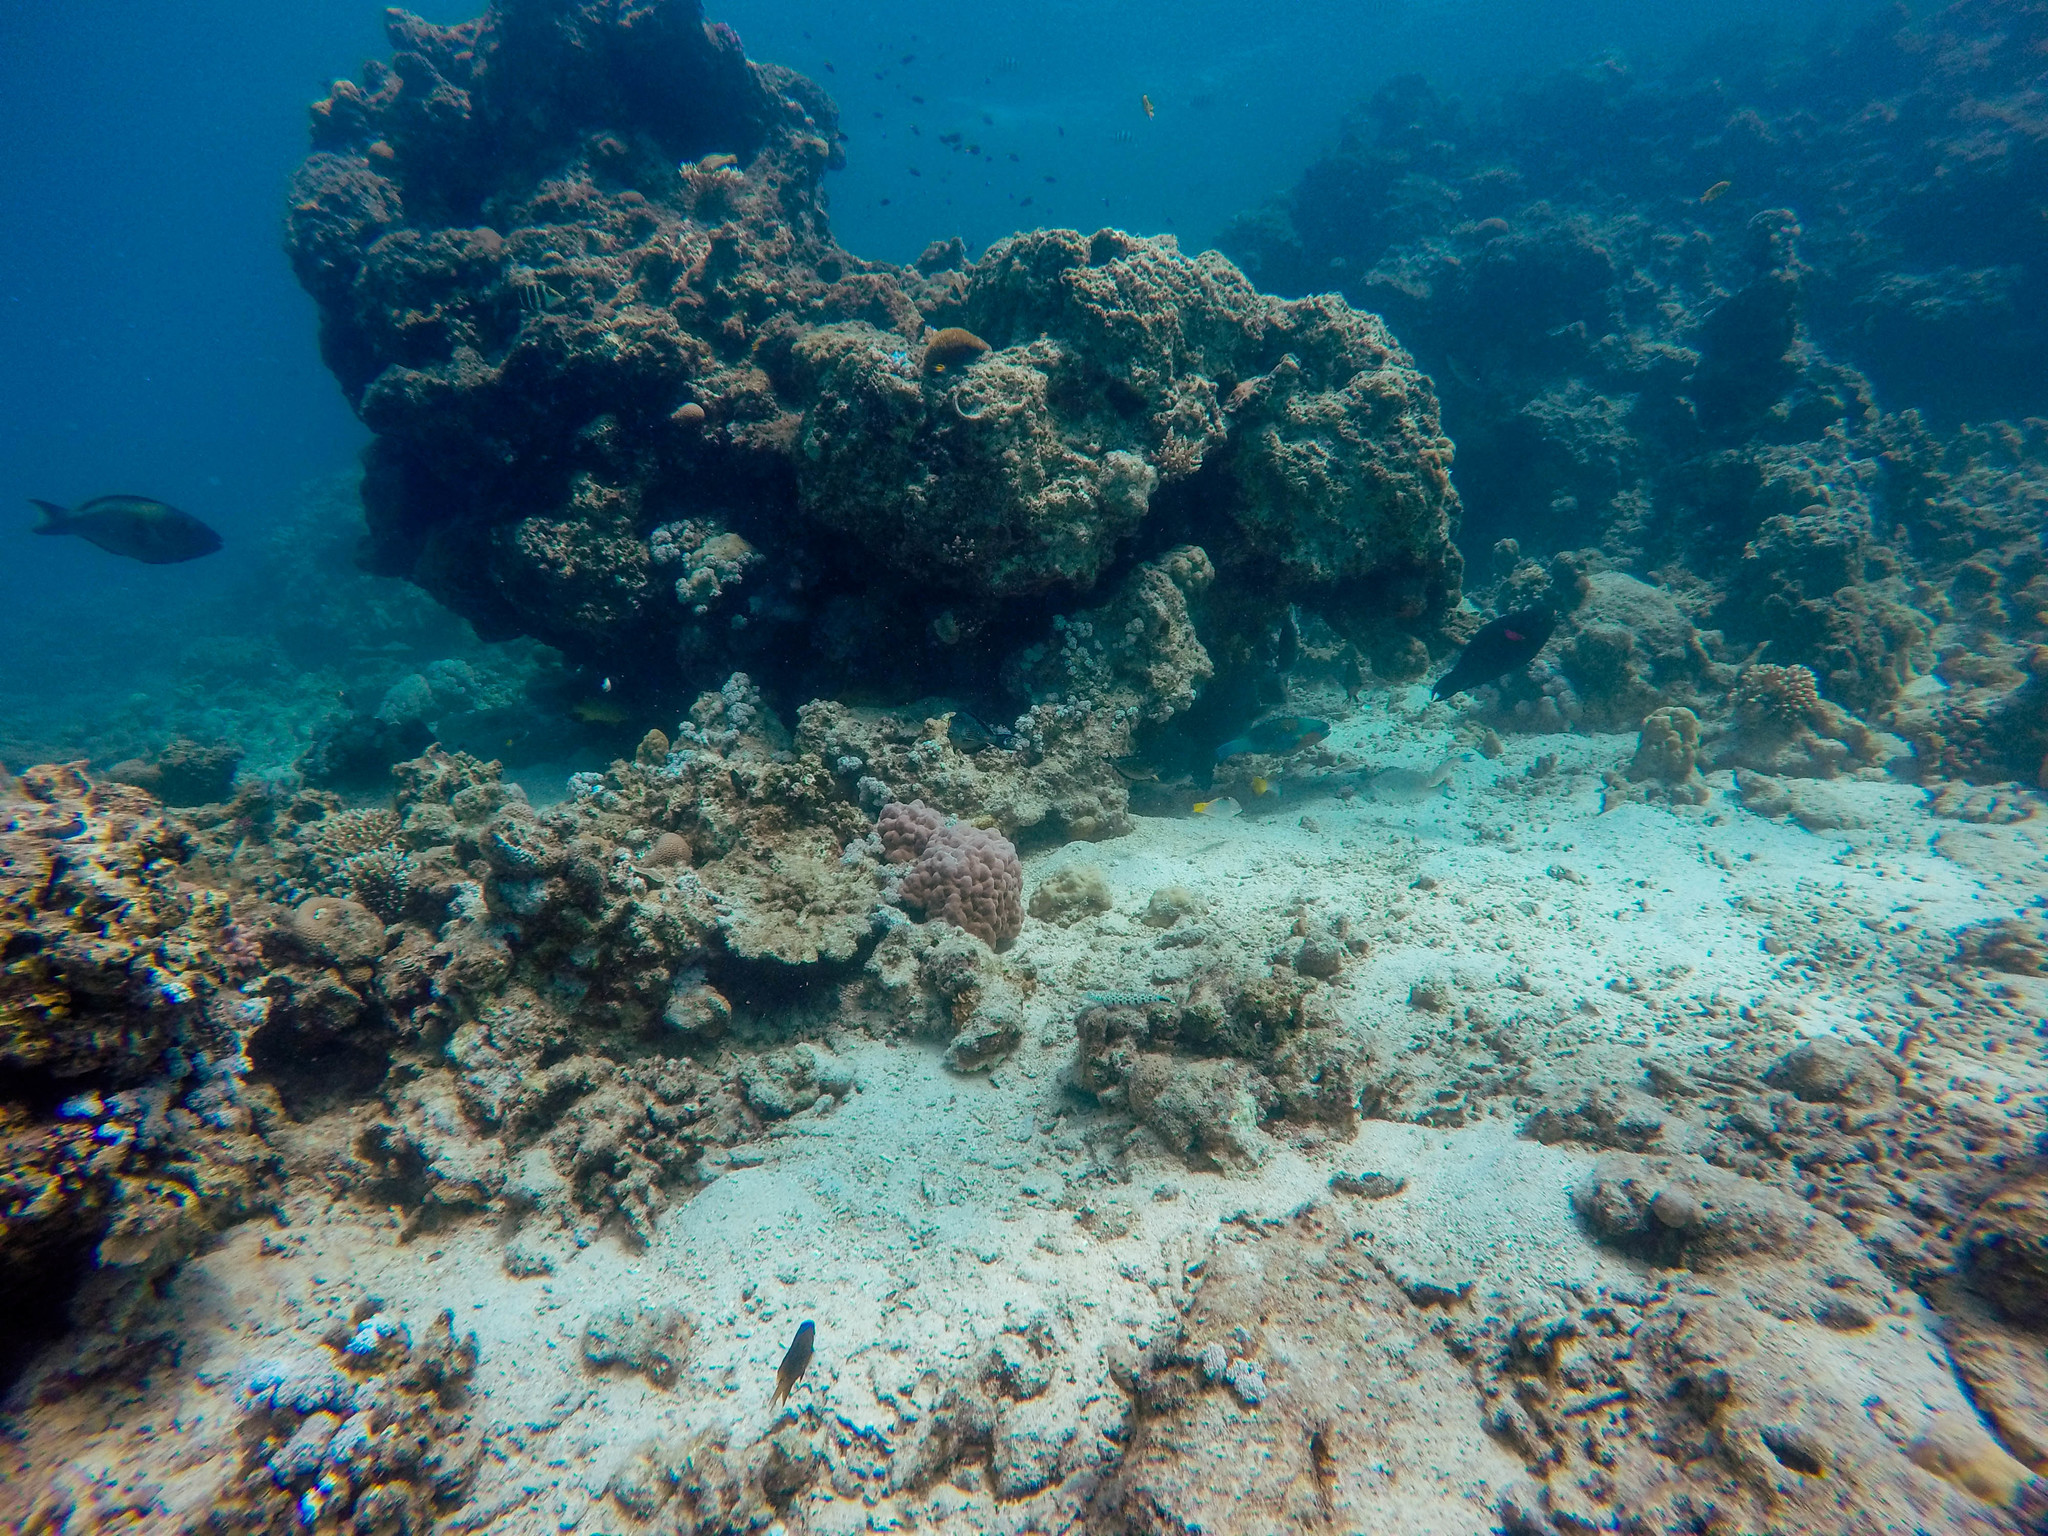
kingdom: Animalia
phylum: Chordata
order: Perciformes
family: Labridae
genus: Halichoeres
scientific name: Halichoeres hortulanus
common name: Checkerboard wrasse
